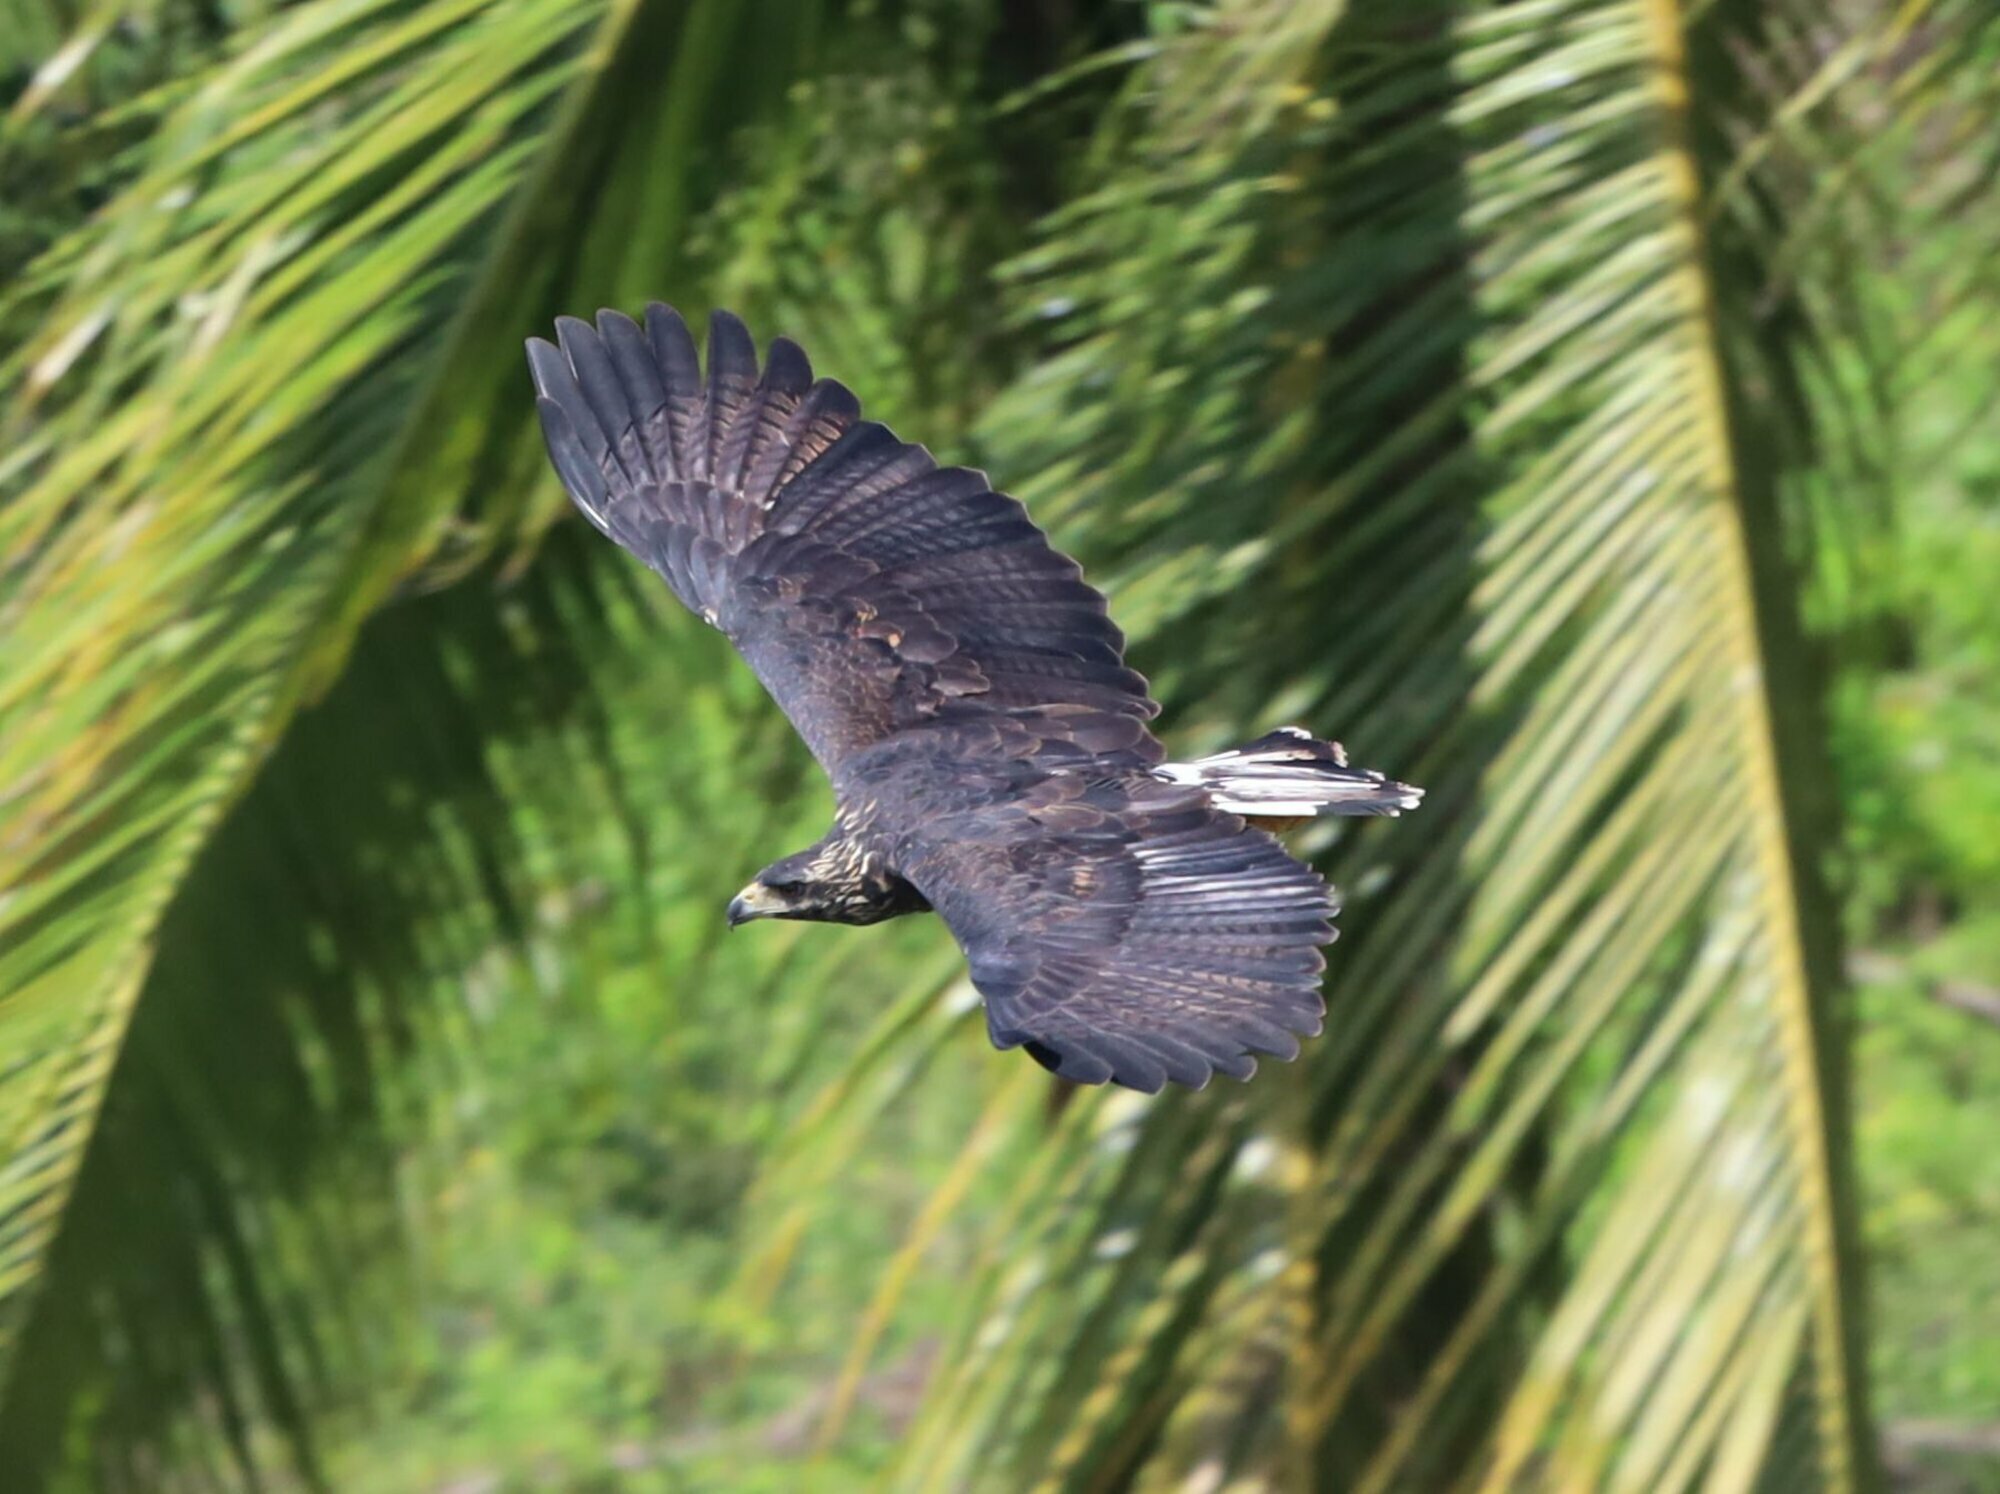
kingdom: Animalia
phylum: Chordata
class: Aves
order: Accipitriformes
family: Accipitridae
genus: Buteogallus
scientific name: Buteogallus urubitinga
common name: Great black hawk
